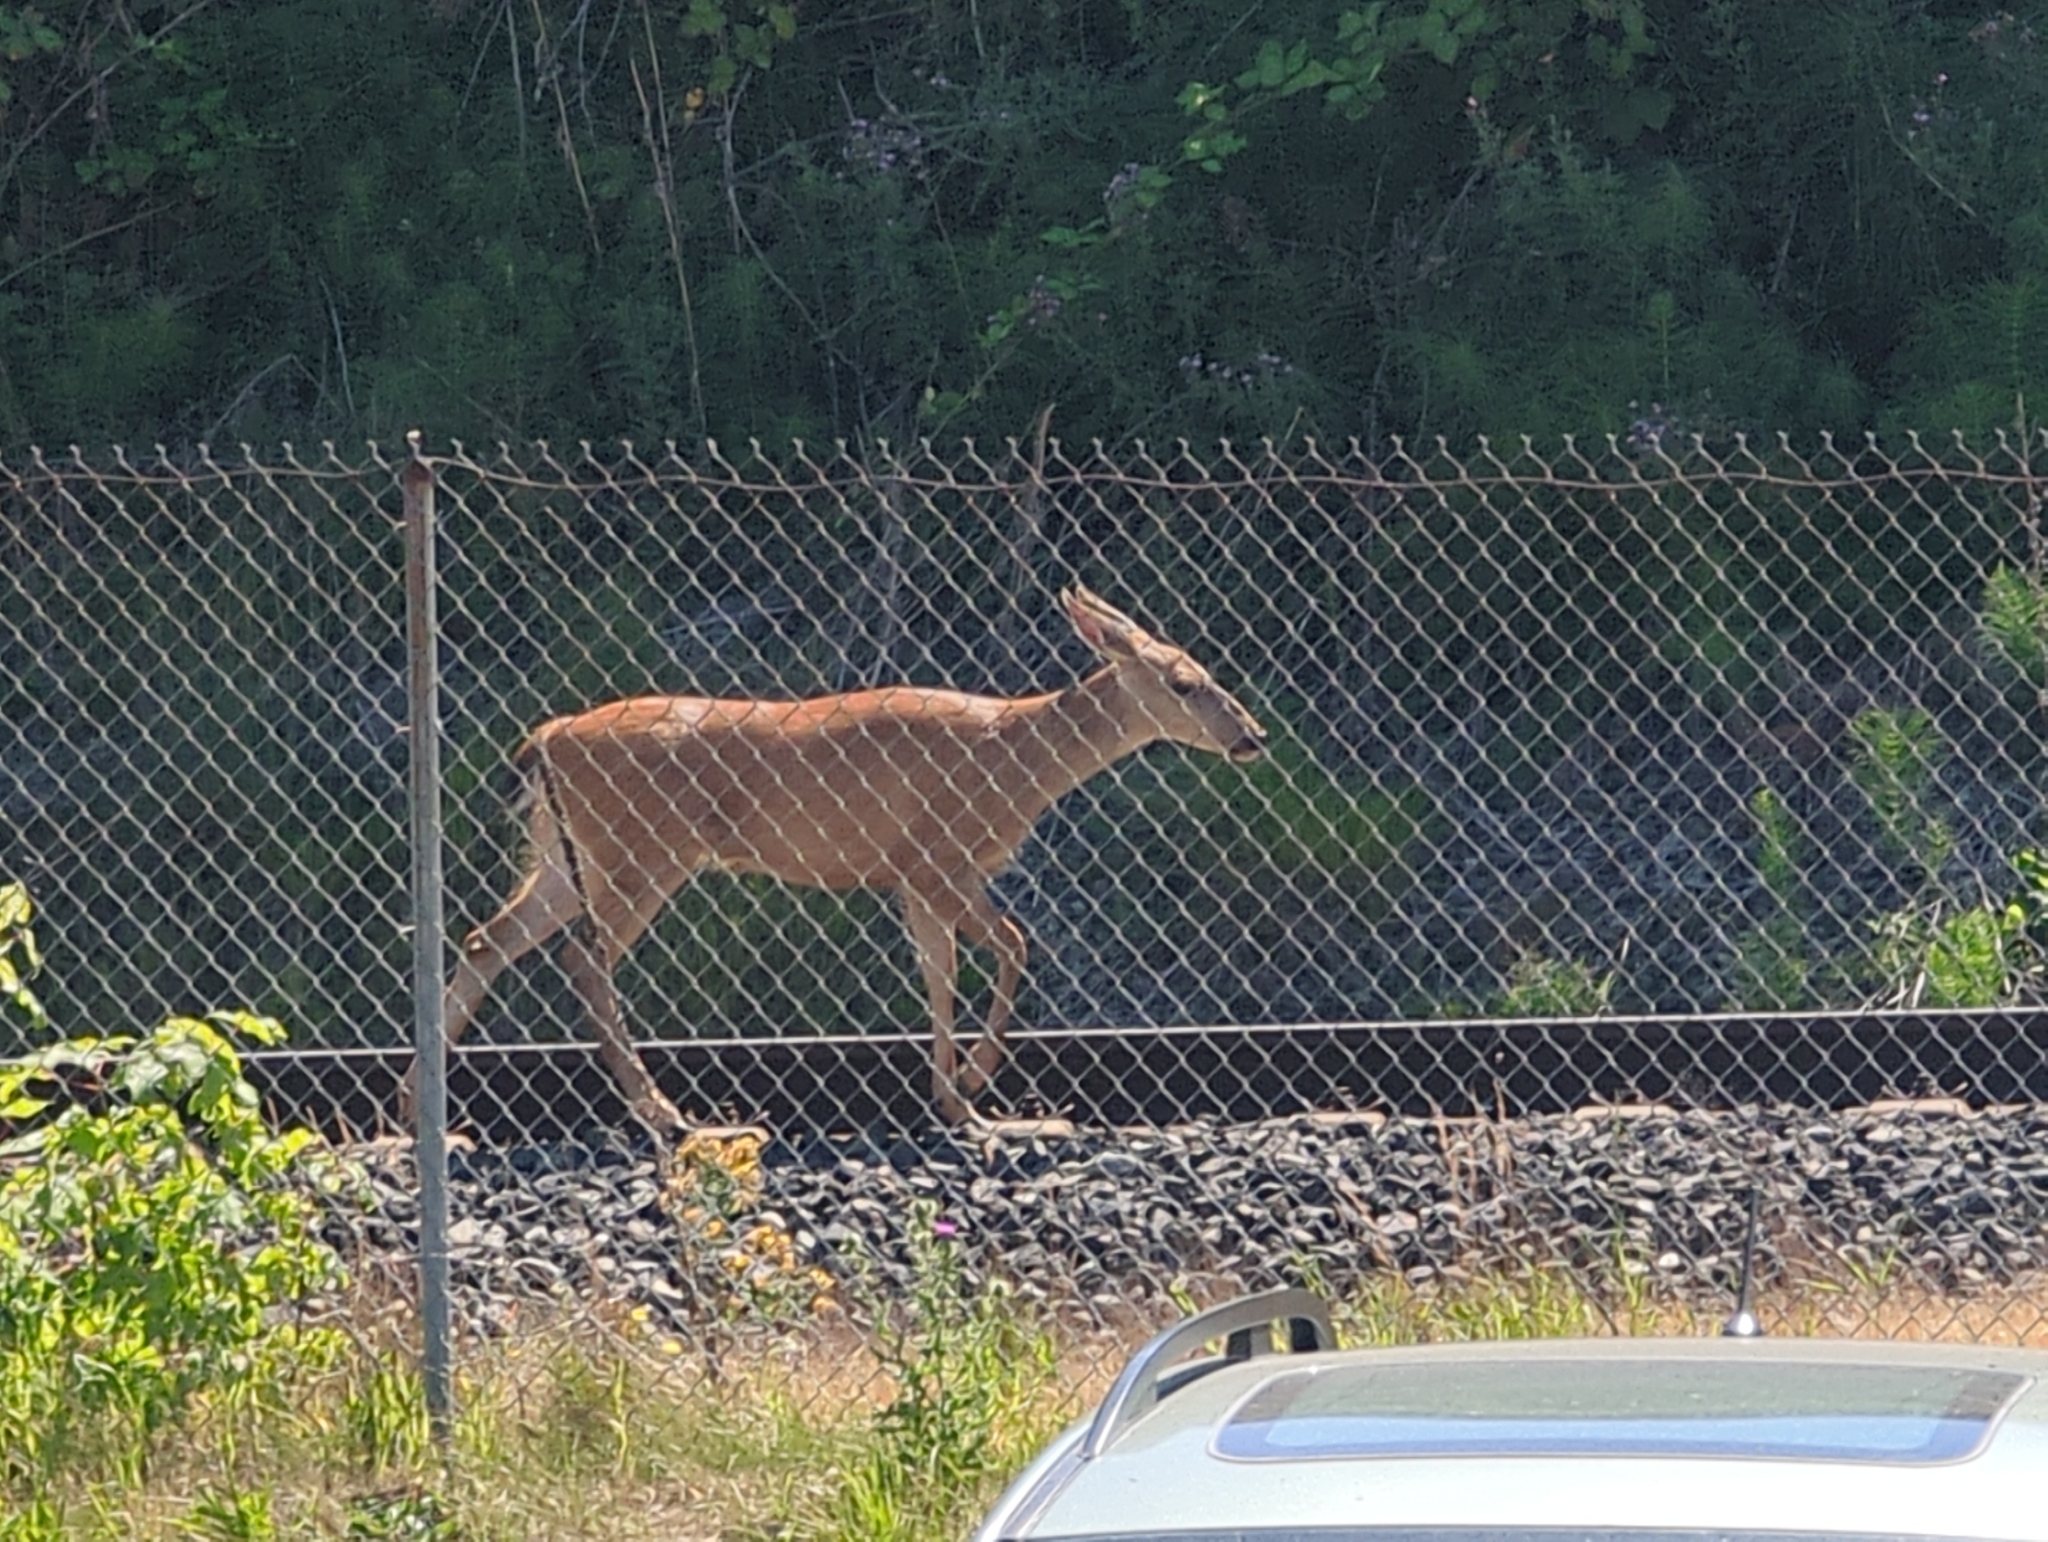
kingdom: Animalia
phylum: Chordata
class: Mammalia
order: Artiodactyla
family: Cervidae
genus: Odocoileus
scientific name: Odocoileus hemionus
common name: Mule deer
